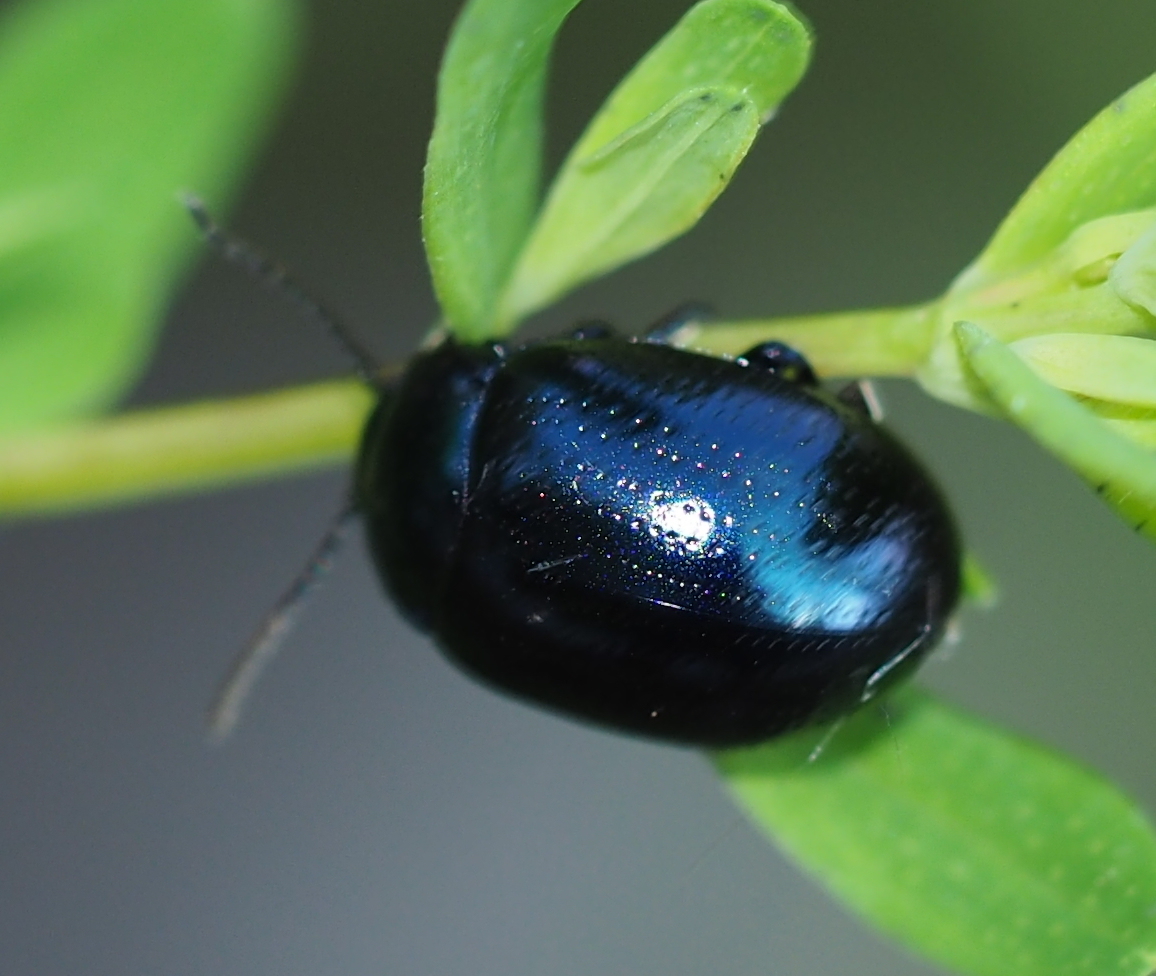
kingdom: Animalia
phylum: Arthropoda
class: Insecta
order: Coleoptera
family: Chrysomelidae
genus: Chrysolina
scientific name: Chrysolina geminata
